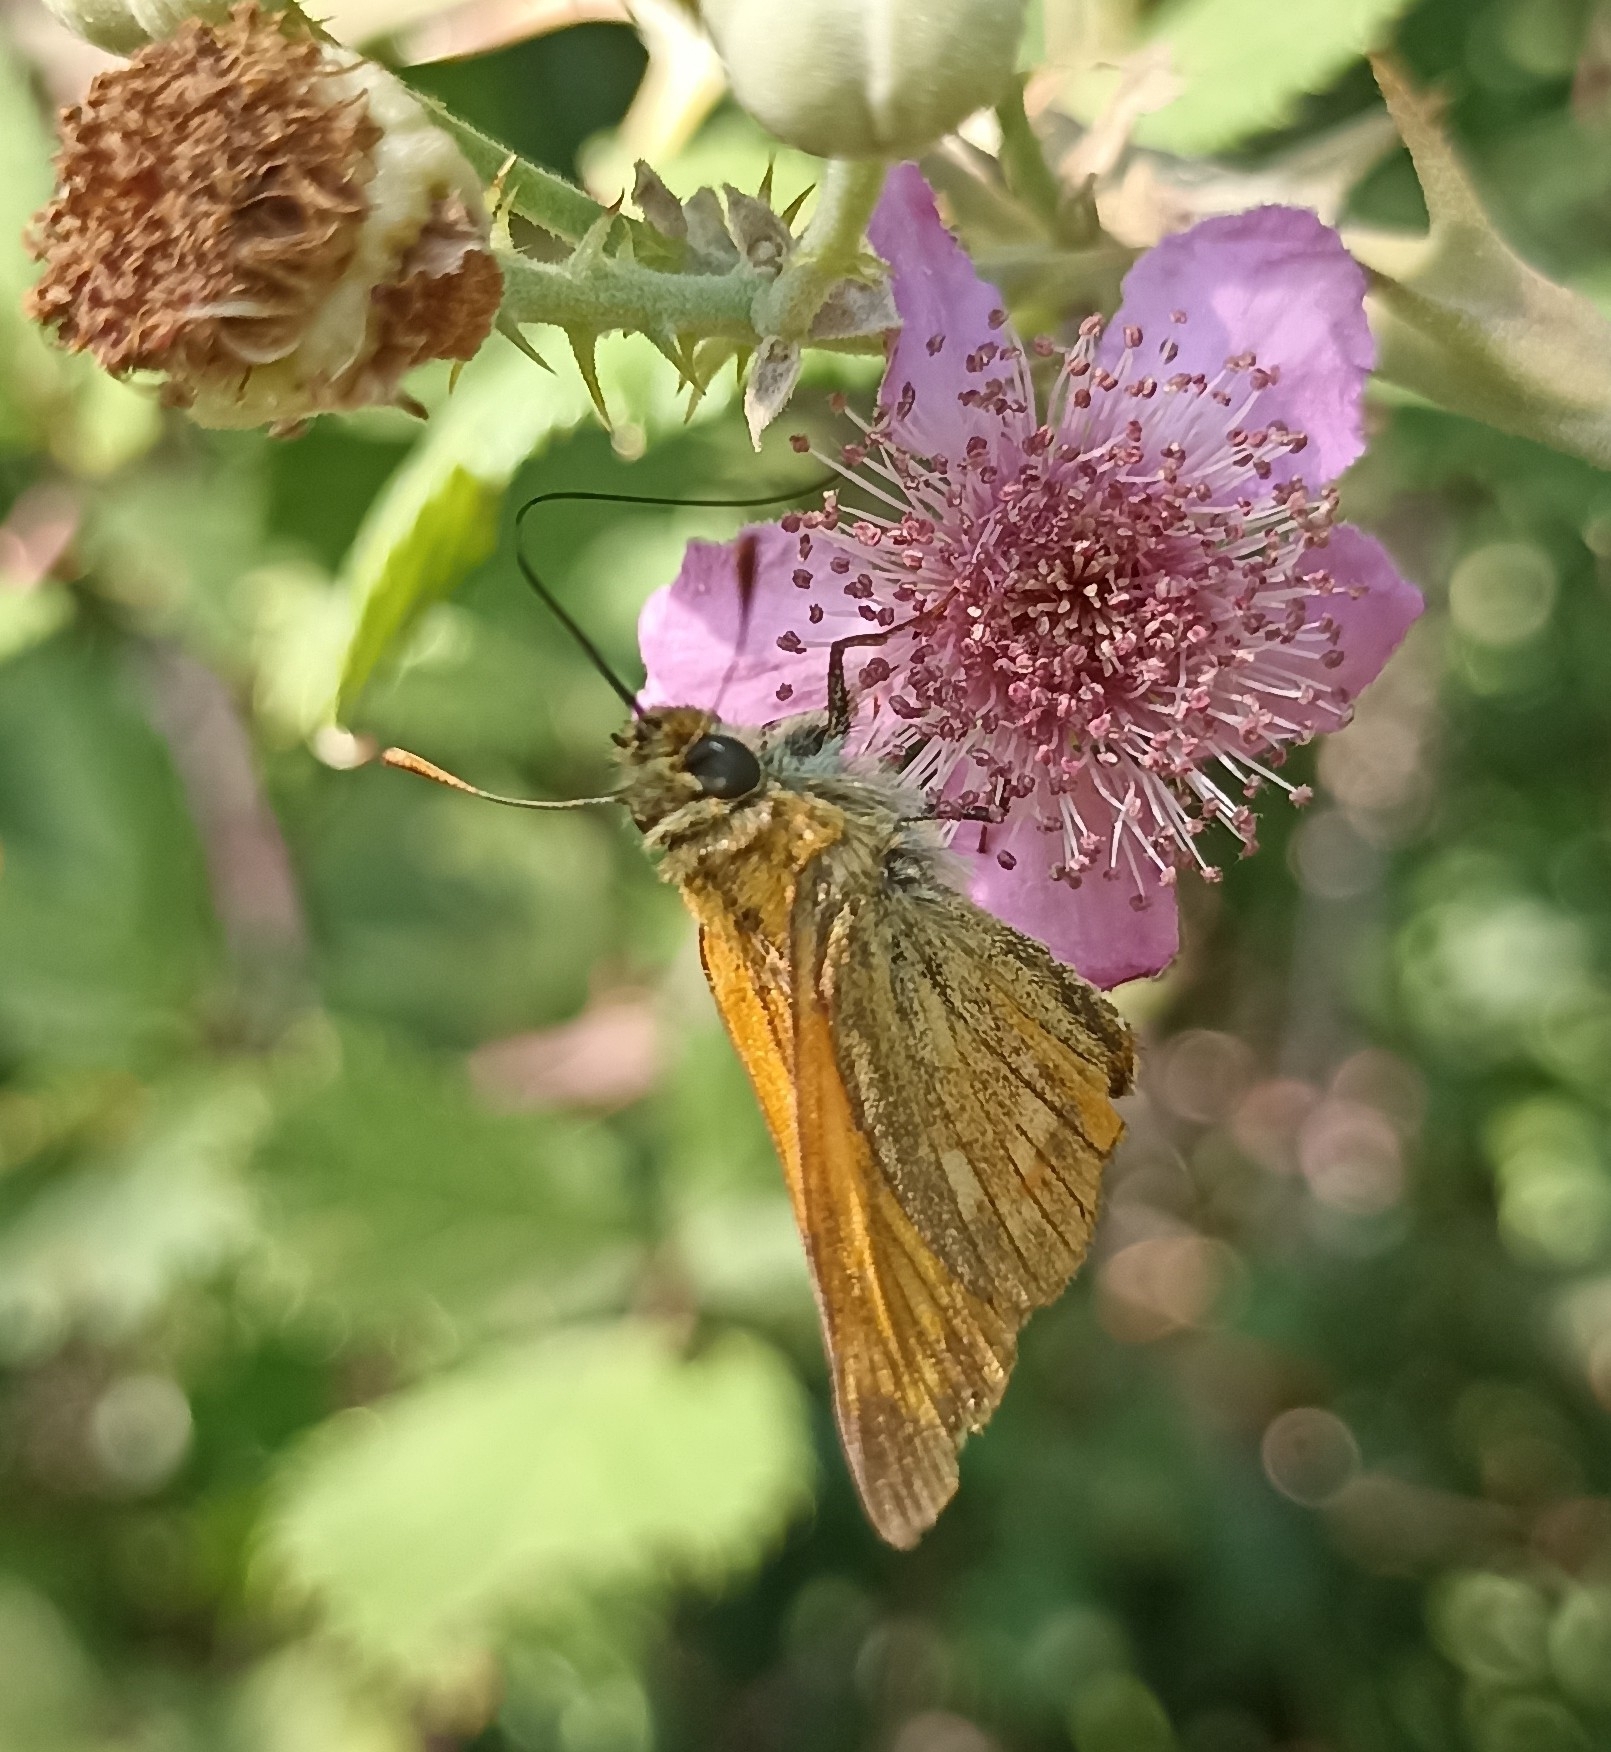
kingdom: Animalia
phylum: Arthropoda
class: Insecta
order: Lepidoptera
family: Hesperiidae
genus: Ochlodes
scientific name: Ochlodes venata
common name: Large skipper
